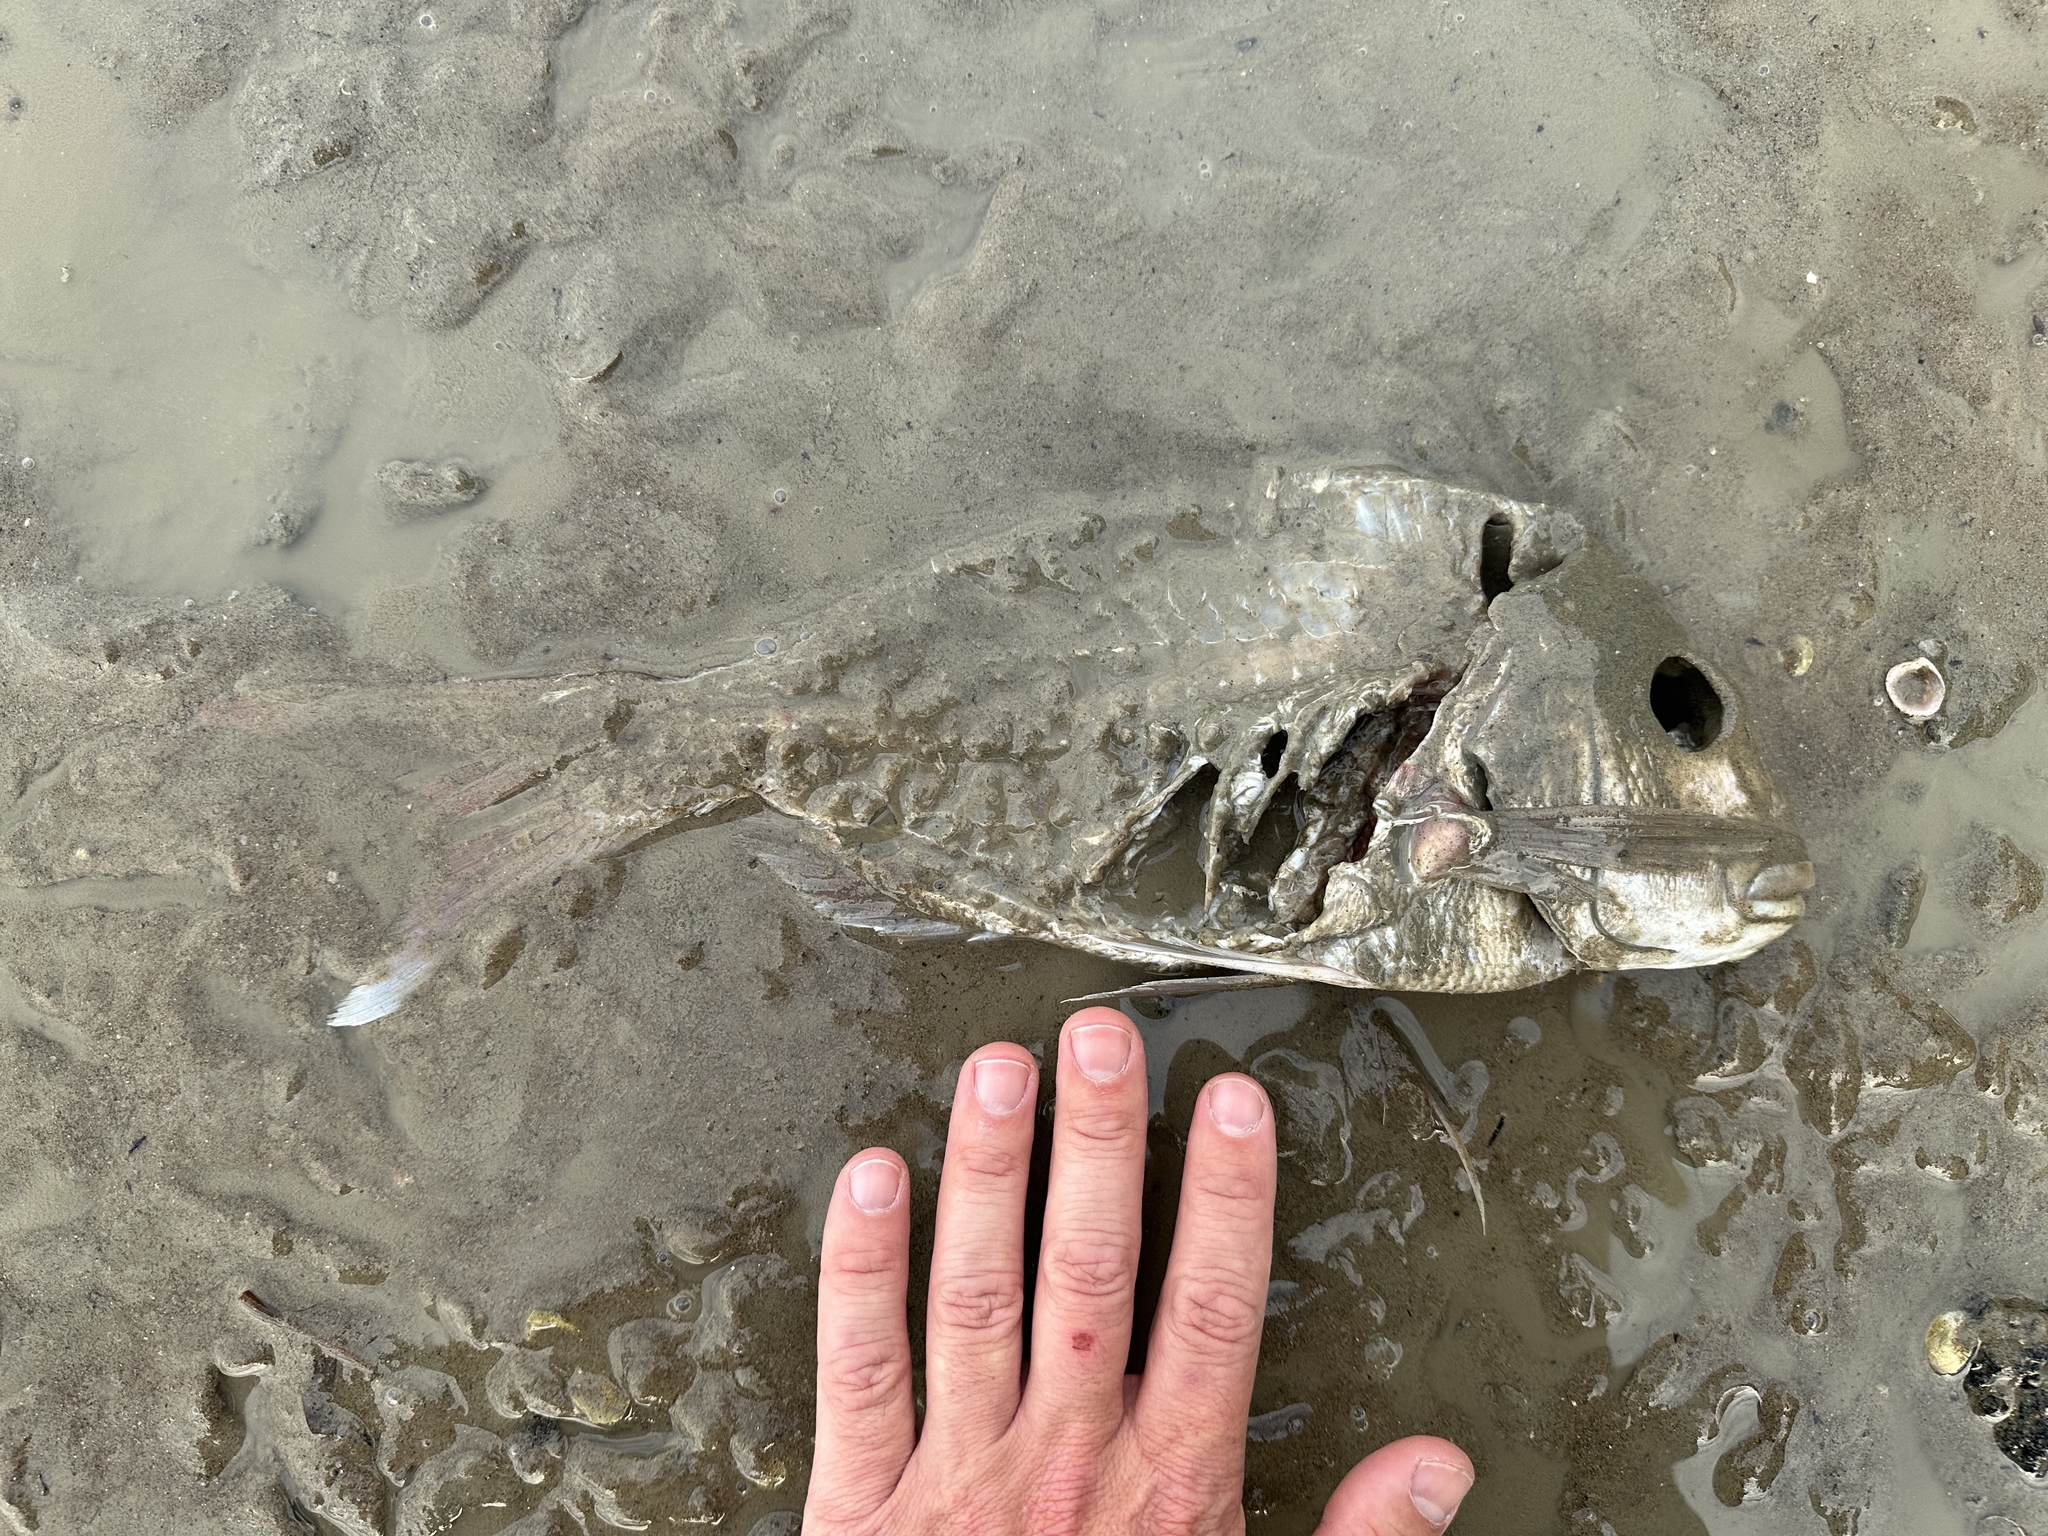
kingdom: Animalia
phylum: Chordata
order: Perciformes
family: Sparidae
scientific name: Sparidae
